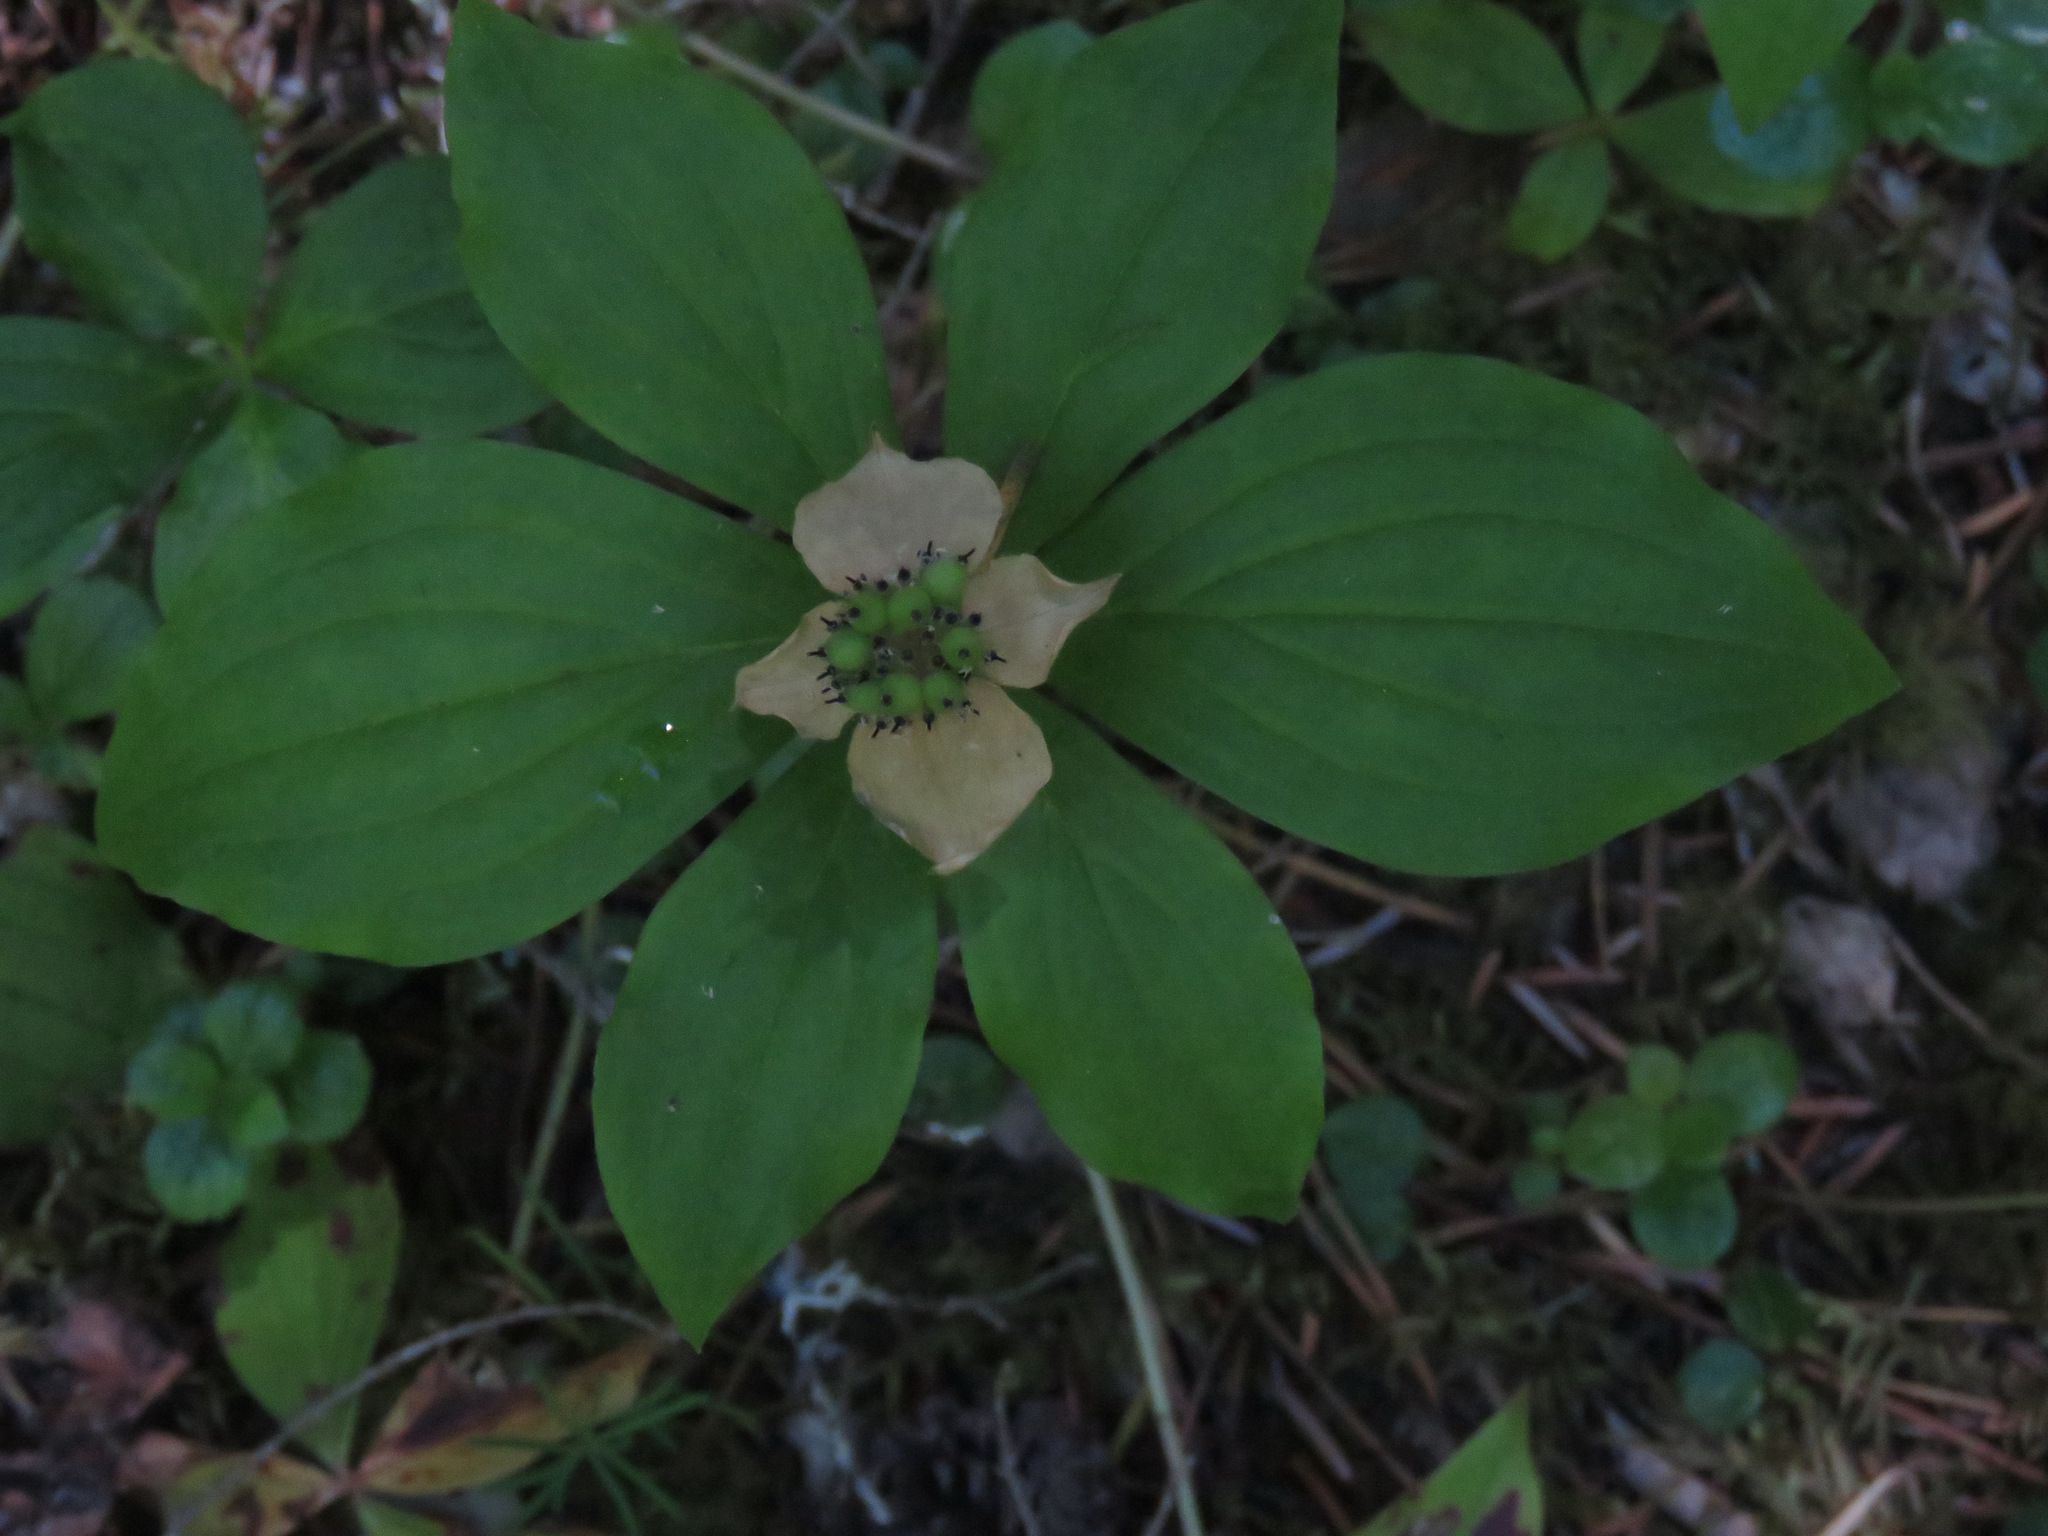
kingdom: Plantae
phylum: Tracheophyta
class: Magnoliopsida
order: Cornales
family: Cornaceae
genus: Cornus
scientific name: Cornus unalaschkensis
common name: Alaska bunchberry
